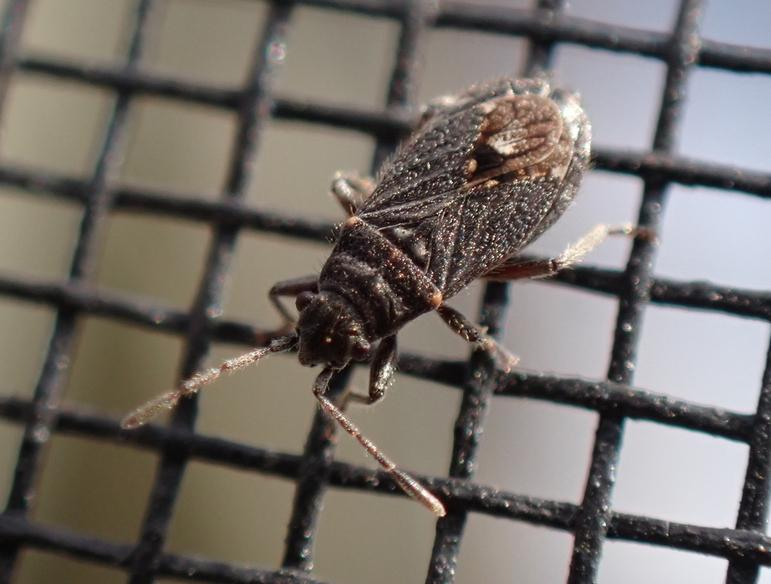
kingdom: Animalia
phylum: Arthropoda
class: Insecta
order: Hemiptera
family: Lygaeidae
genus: Lygaeospilus
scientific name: Lygaeospilus tripunctatus
